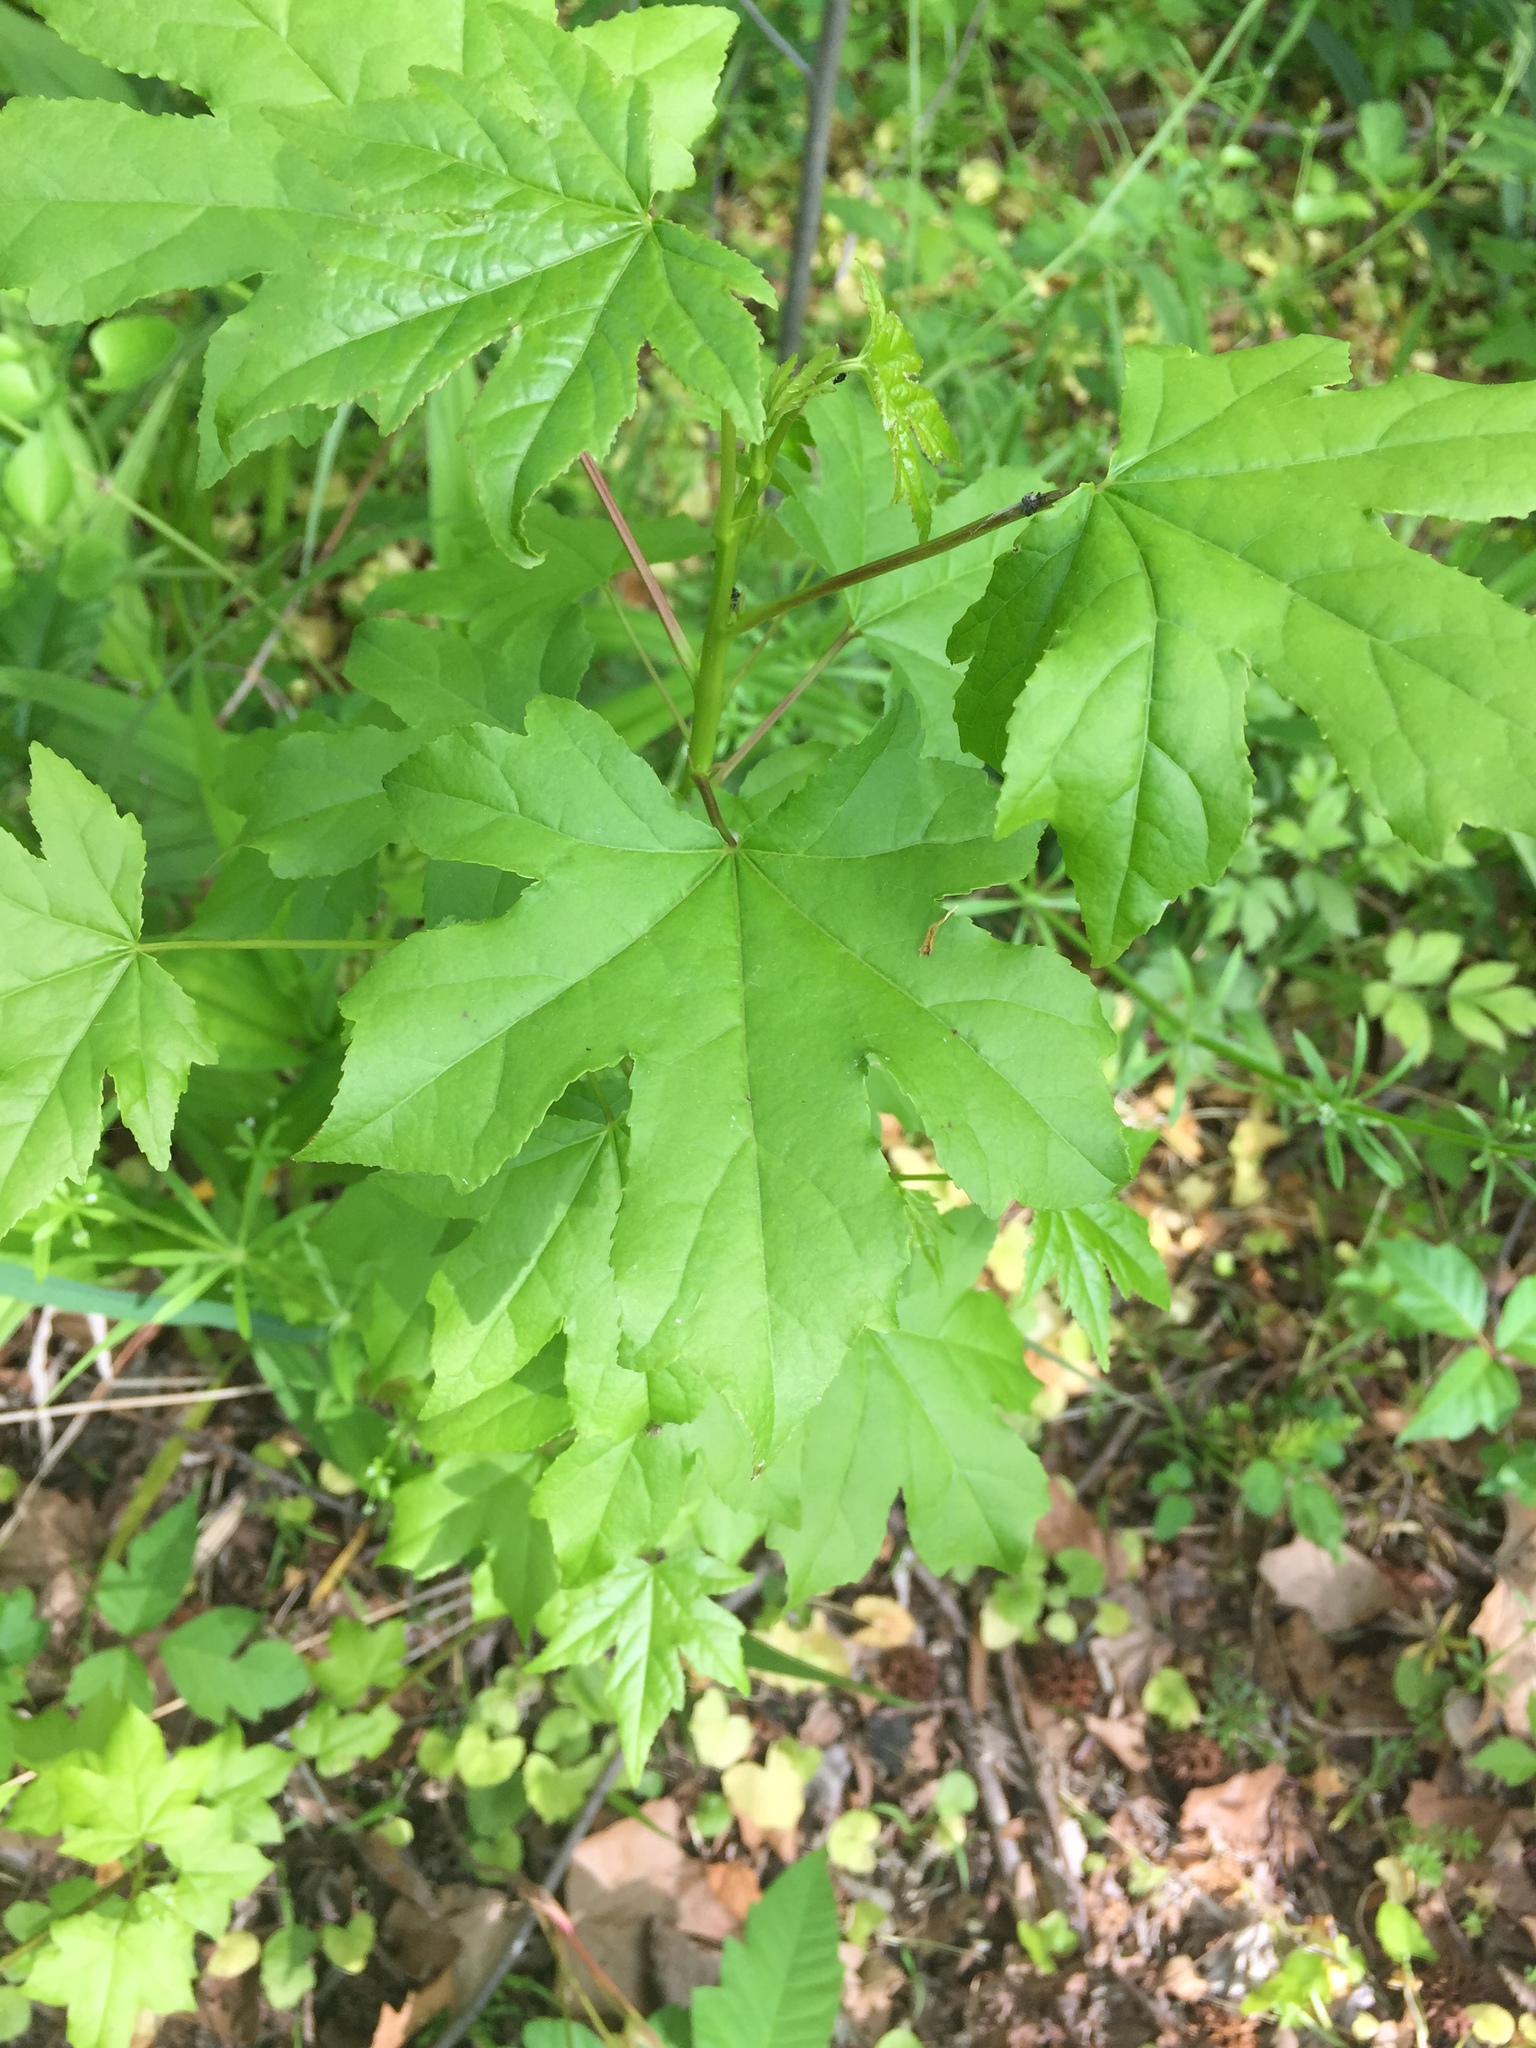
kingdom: Plantae
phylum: Tracheophyta
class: Magnoliopsida
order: Saxifragales
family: Altingiaceae
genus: Liquidambar
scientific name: Liquidambar styraciflua
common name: Sweet gum
